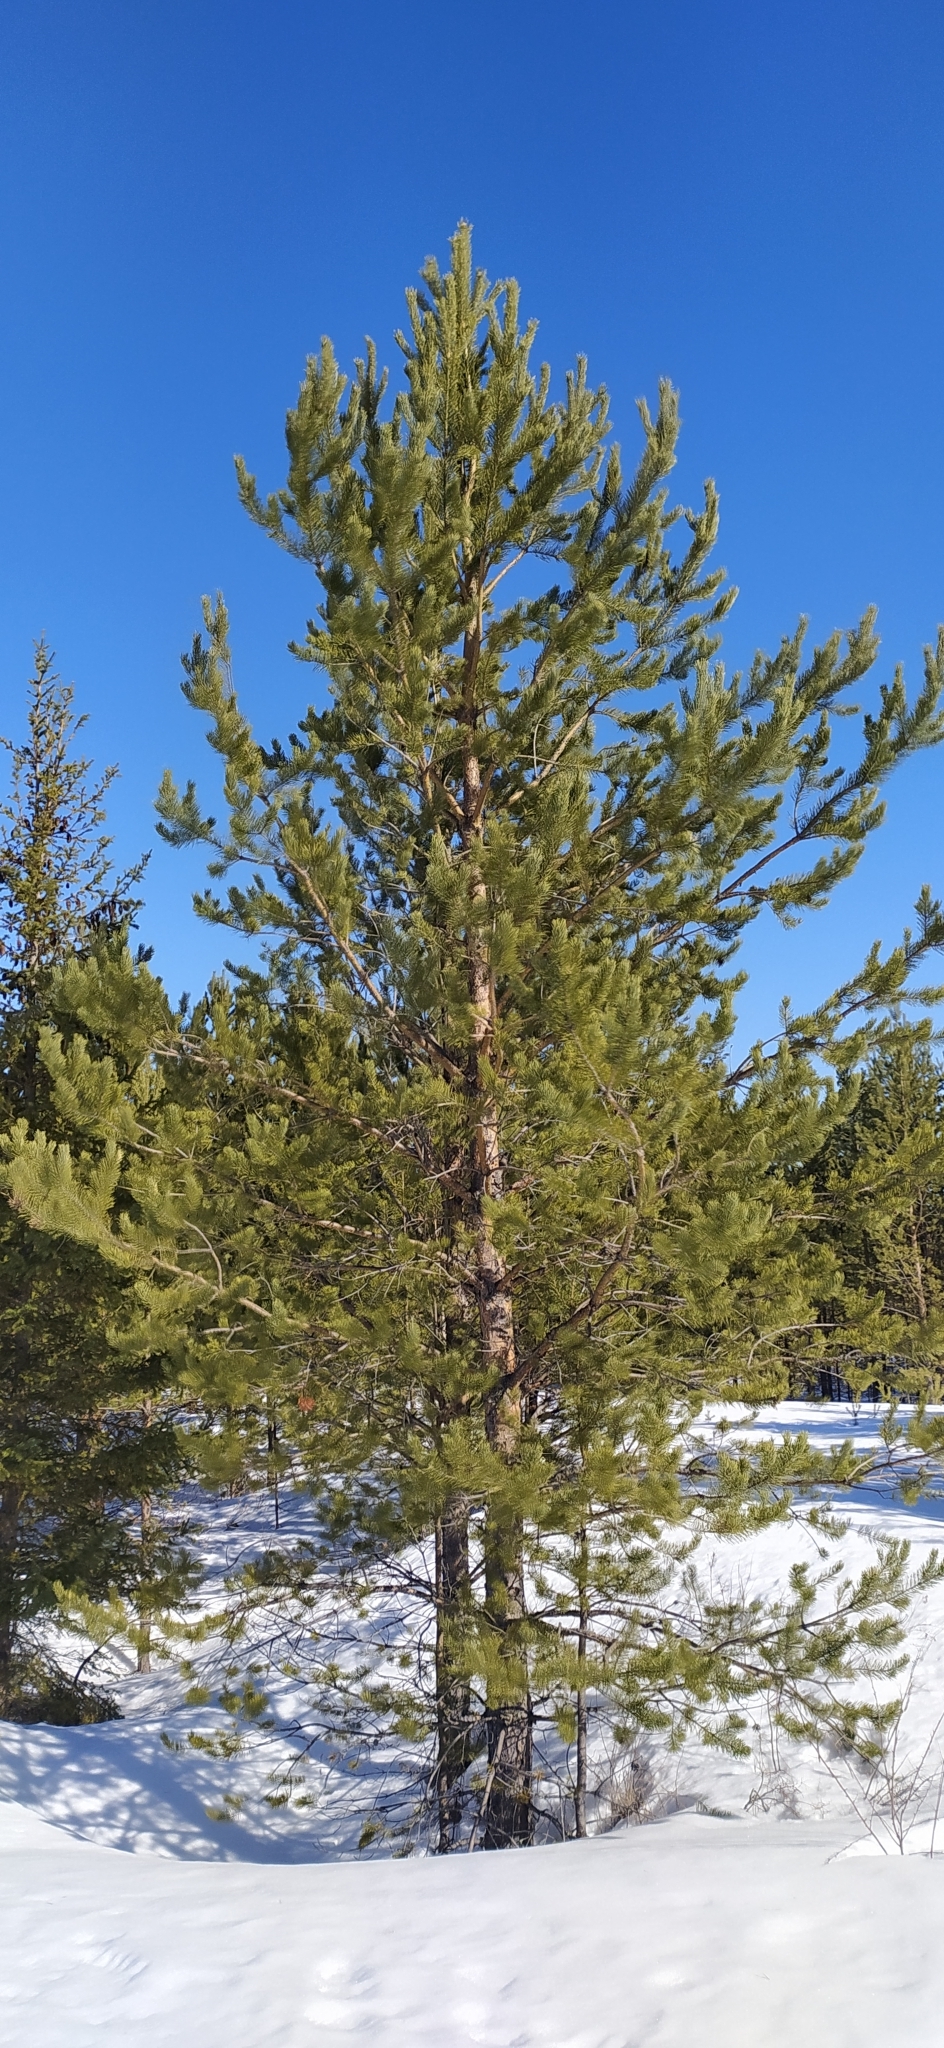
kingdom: Plantae
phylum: Tracheophyta
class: Pinopsida
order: Pinales
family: Pinaceae
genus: Pinus
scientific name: Pinus sylvestris
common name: Scots pine
